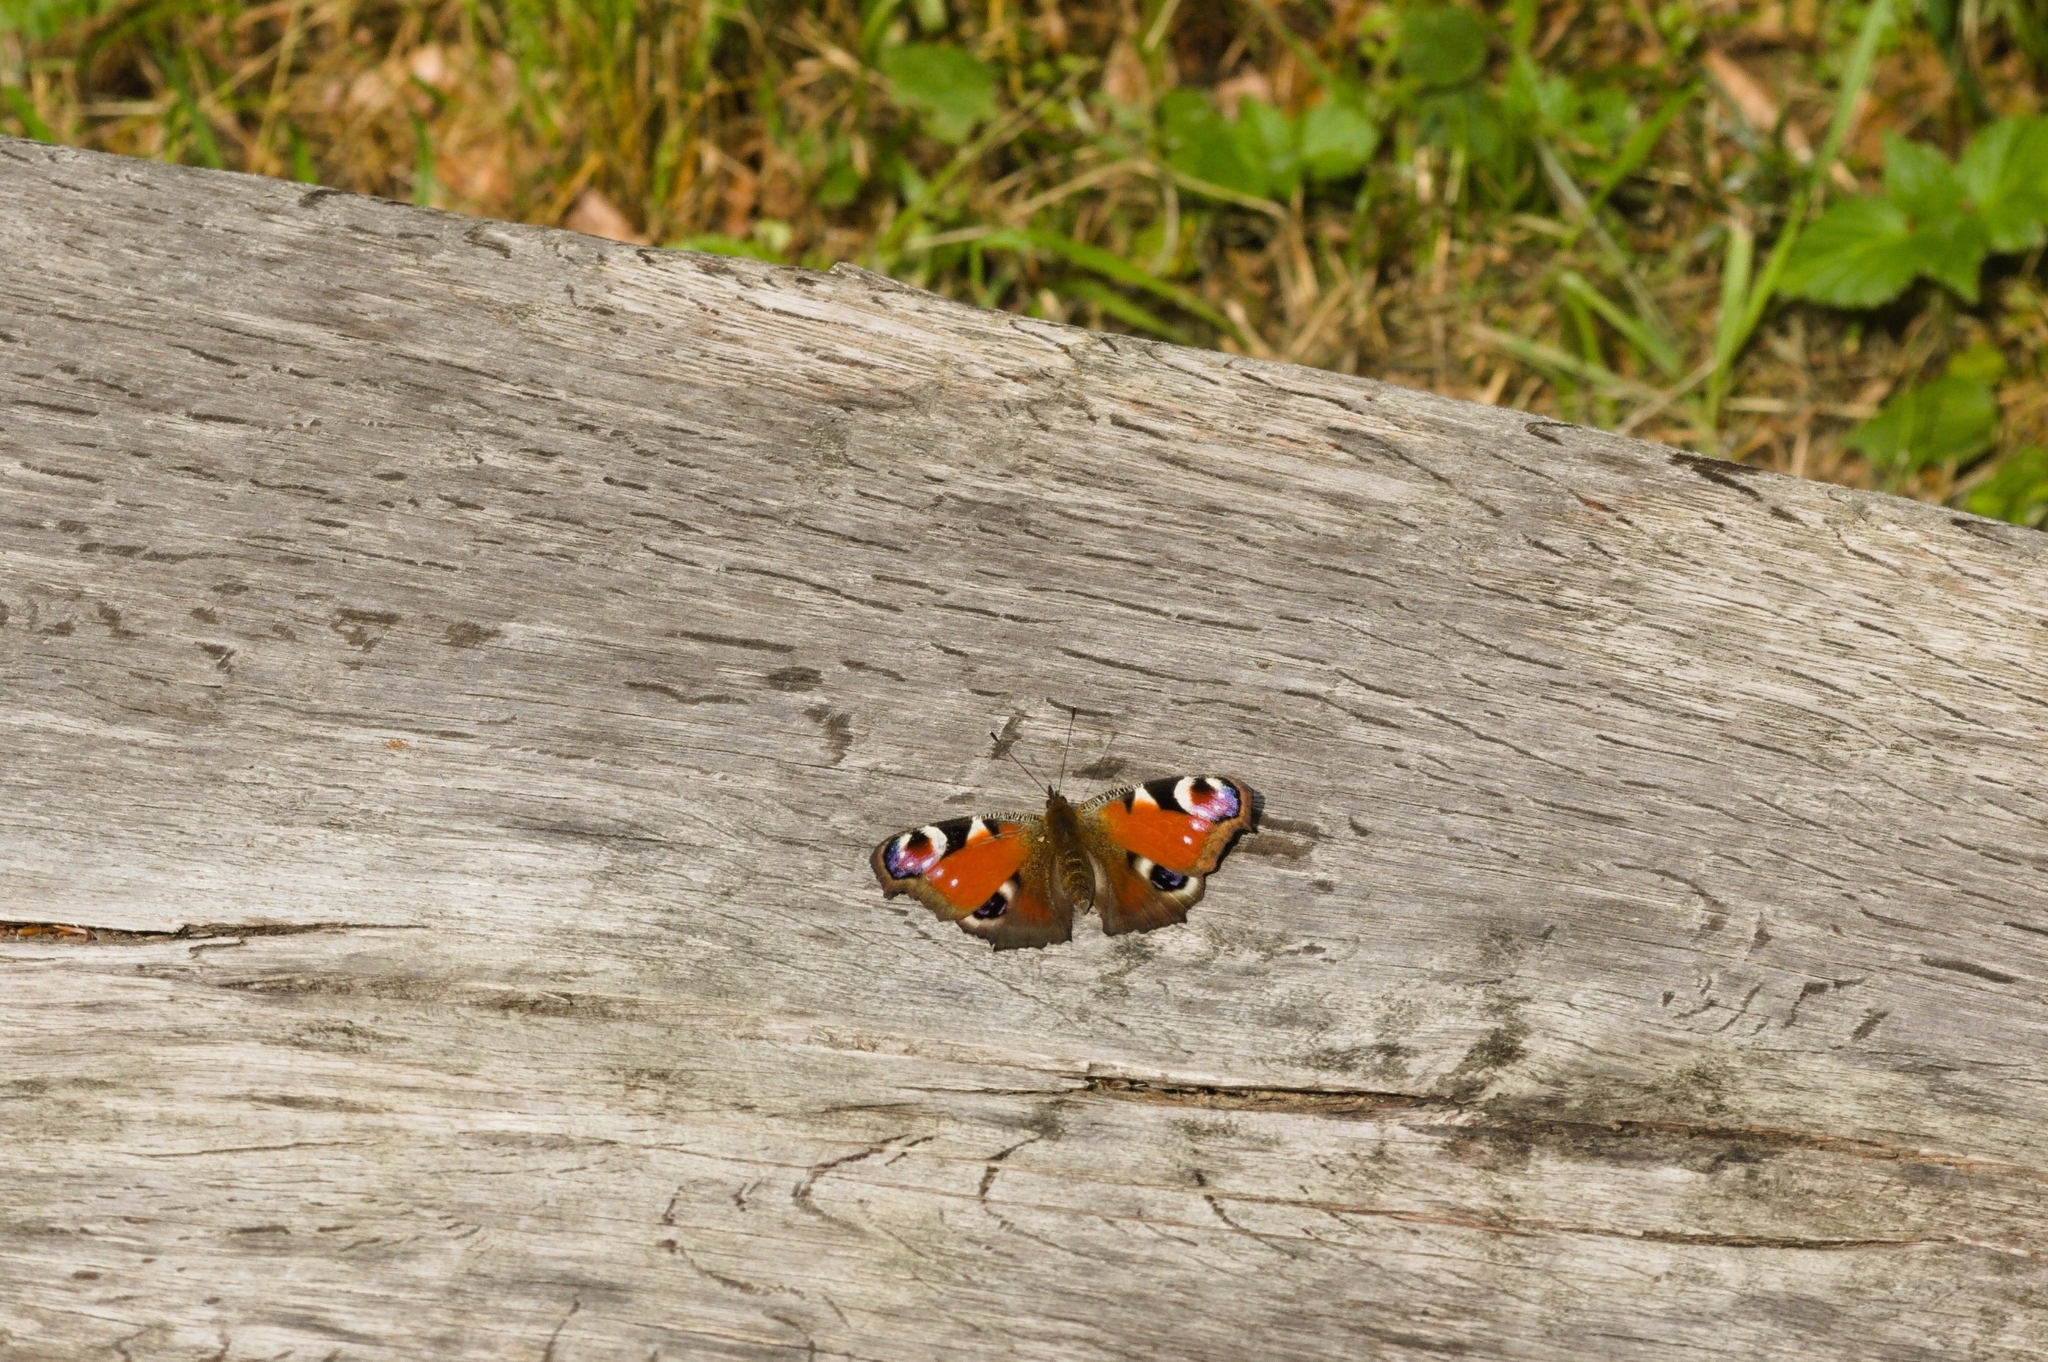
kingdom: Animalia
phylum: Arthropoda
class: Insecta
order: Lepidoptera
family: Nymphalidae
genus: Aglais
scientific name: Aglais io
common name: Peacock
